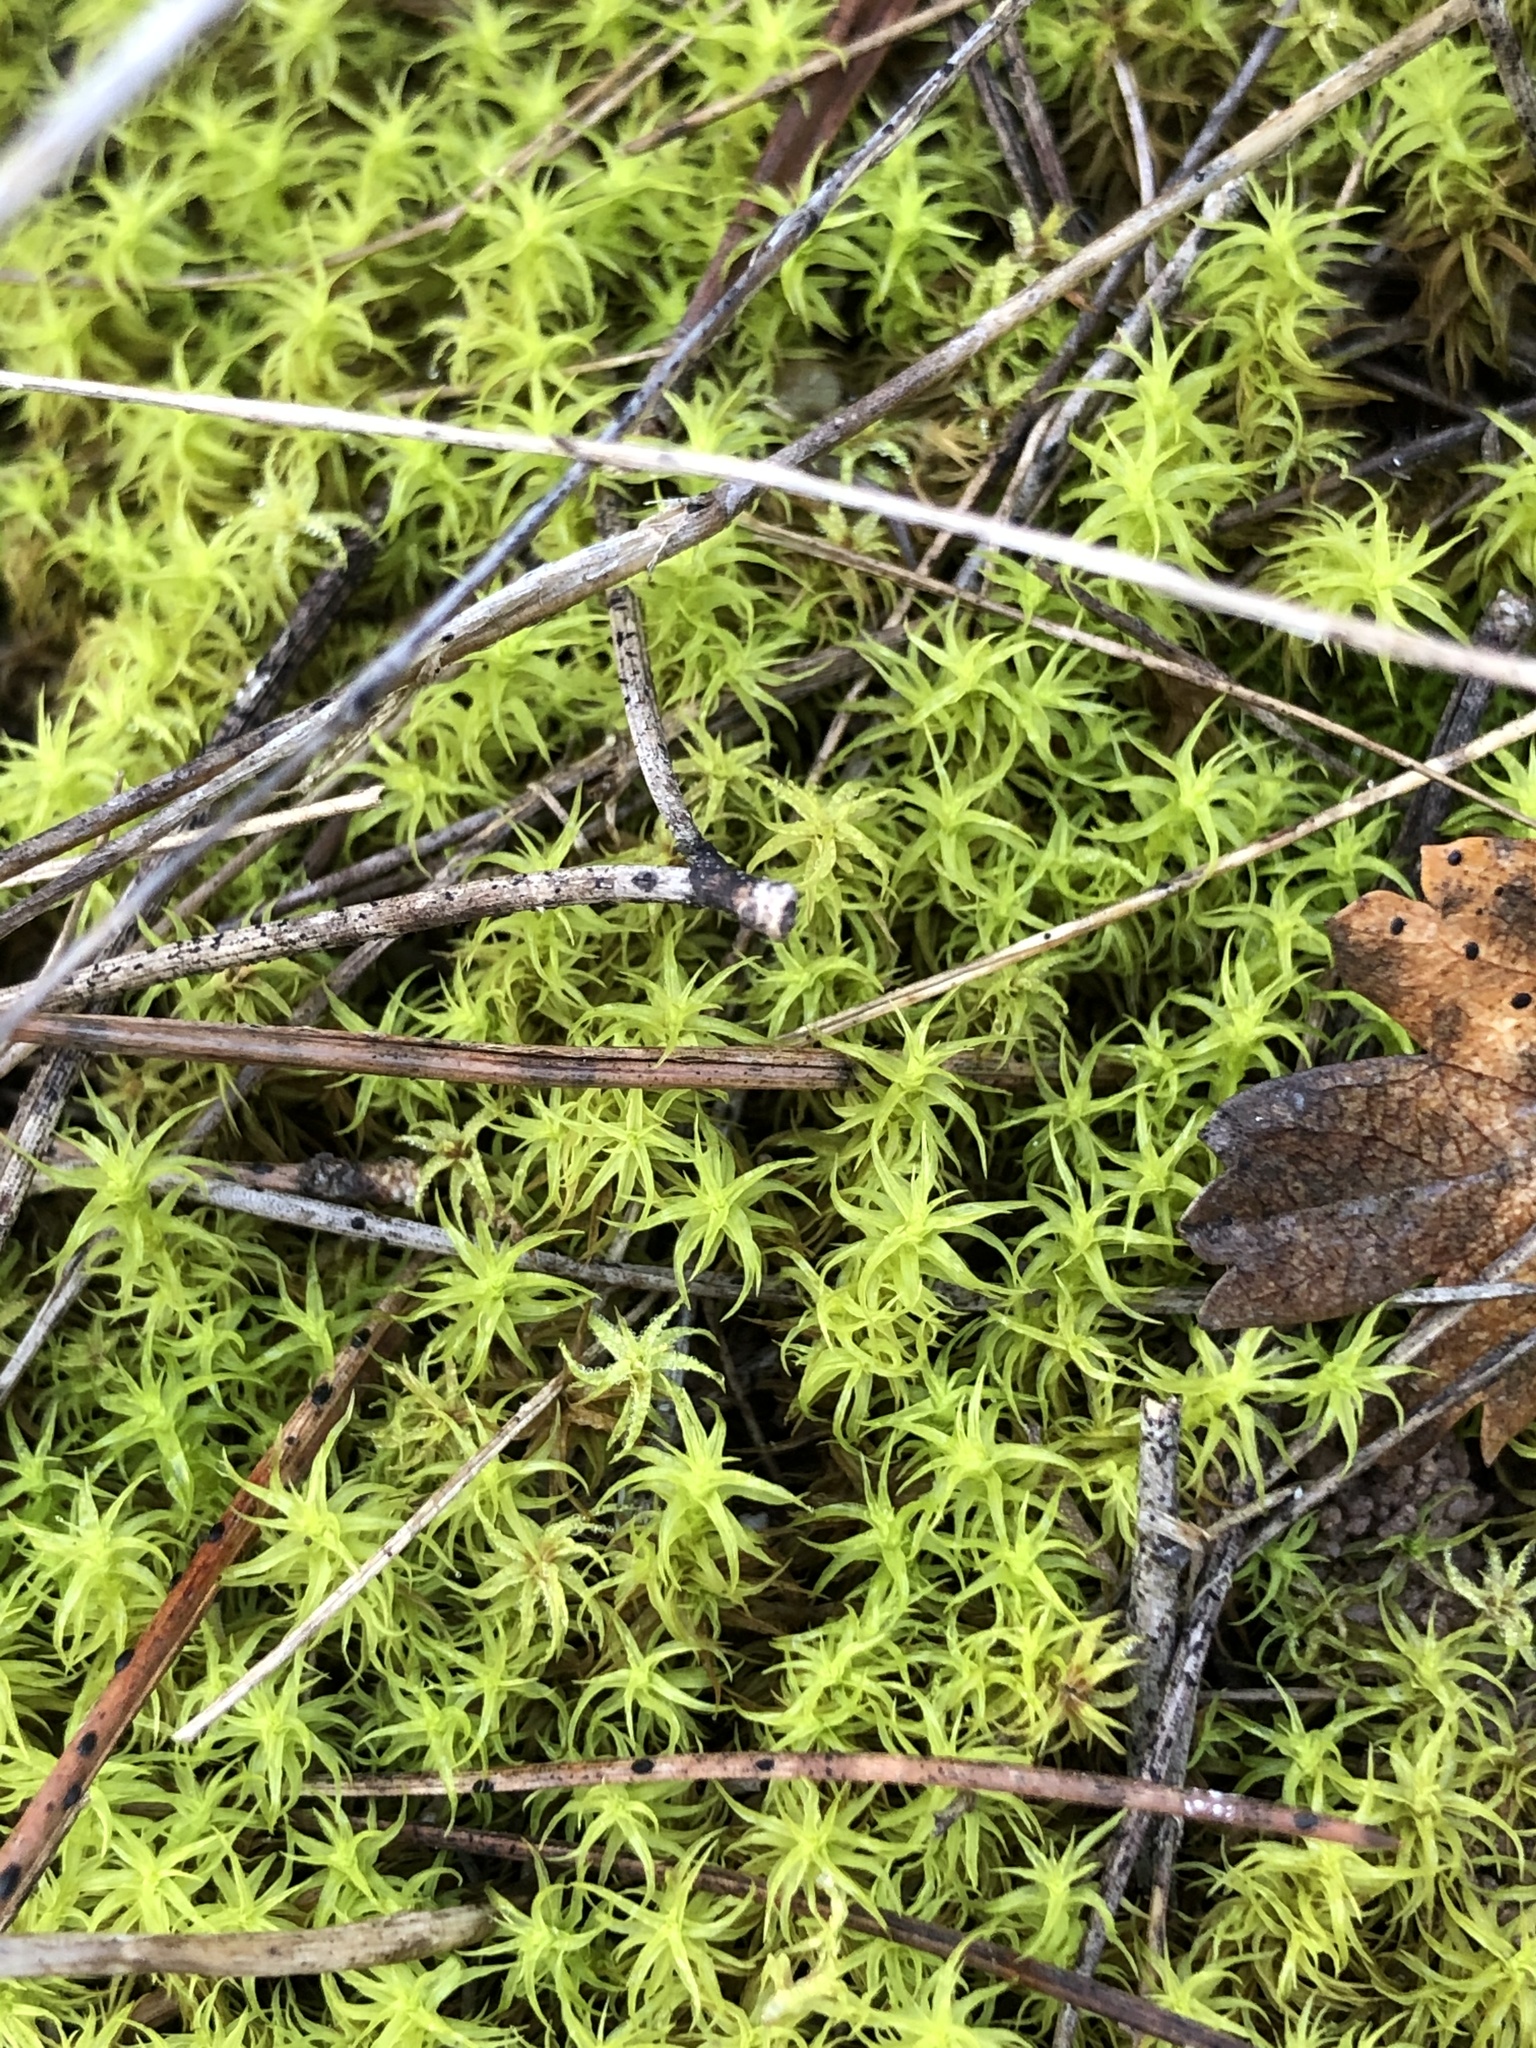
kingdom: Plantae
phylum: Bryophyta
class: Bryopsida
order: Pottiales
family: Pottiaceae
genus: Pleurochaete
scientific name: Pleurochaete squarrosa
